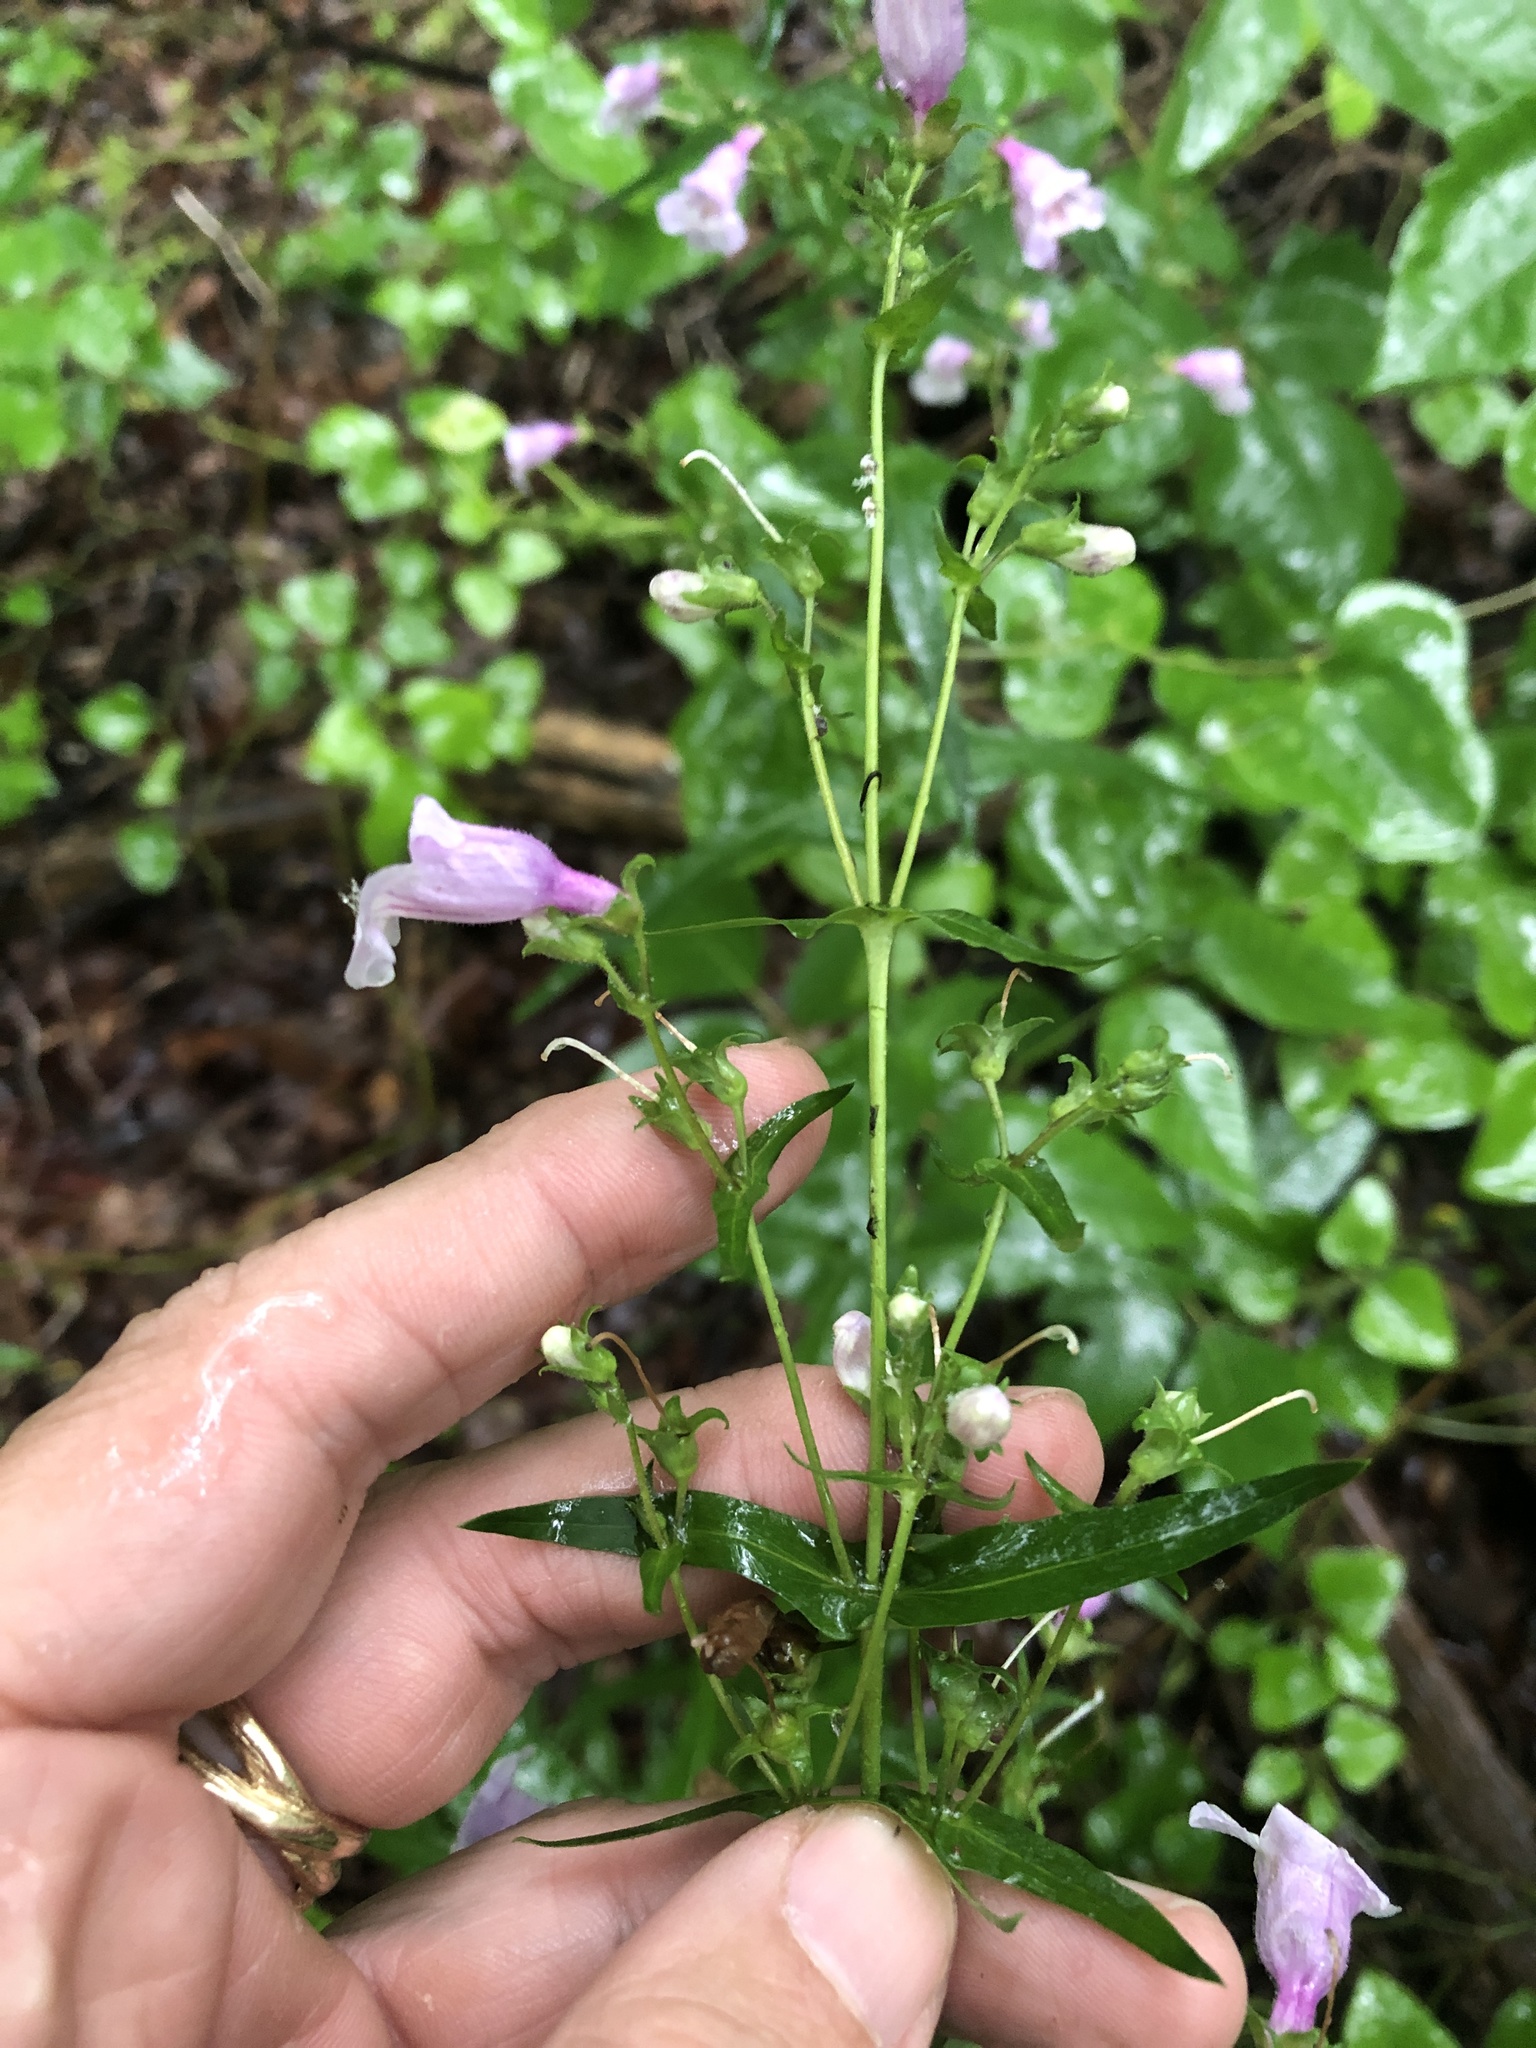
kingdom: Plantae
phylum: Tracheophyta
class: Magnoliopsida
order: Lamiales
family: Plantaginaceae
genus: Penstemon
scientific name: Penstemon tenuis
